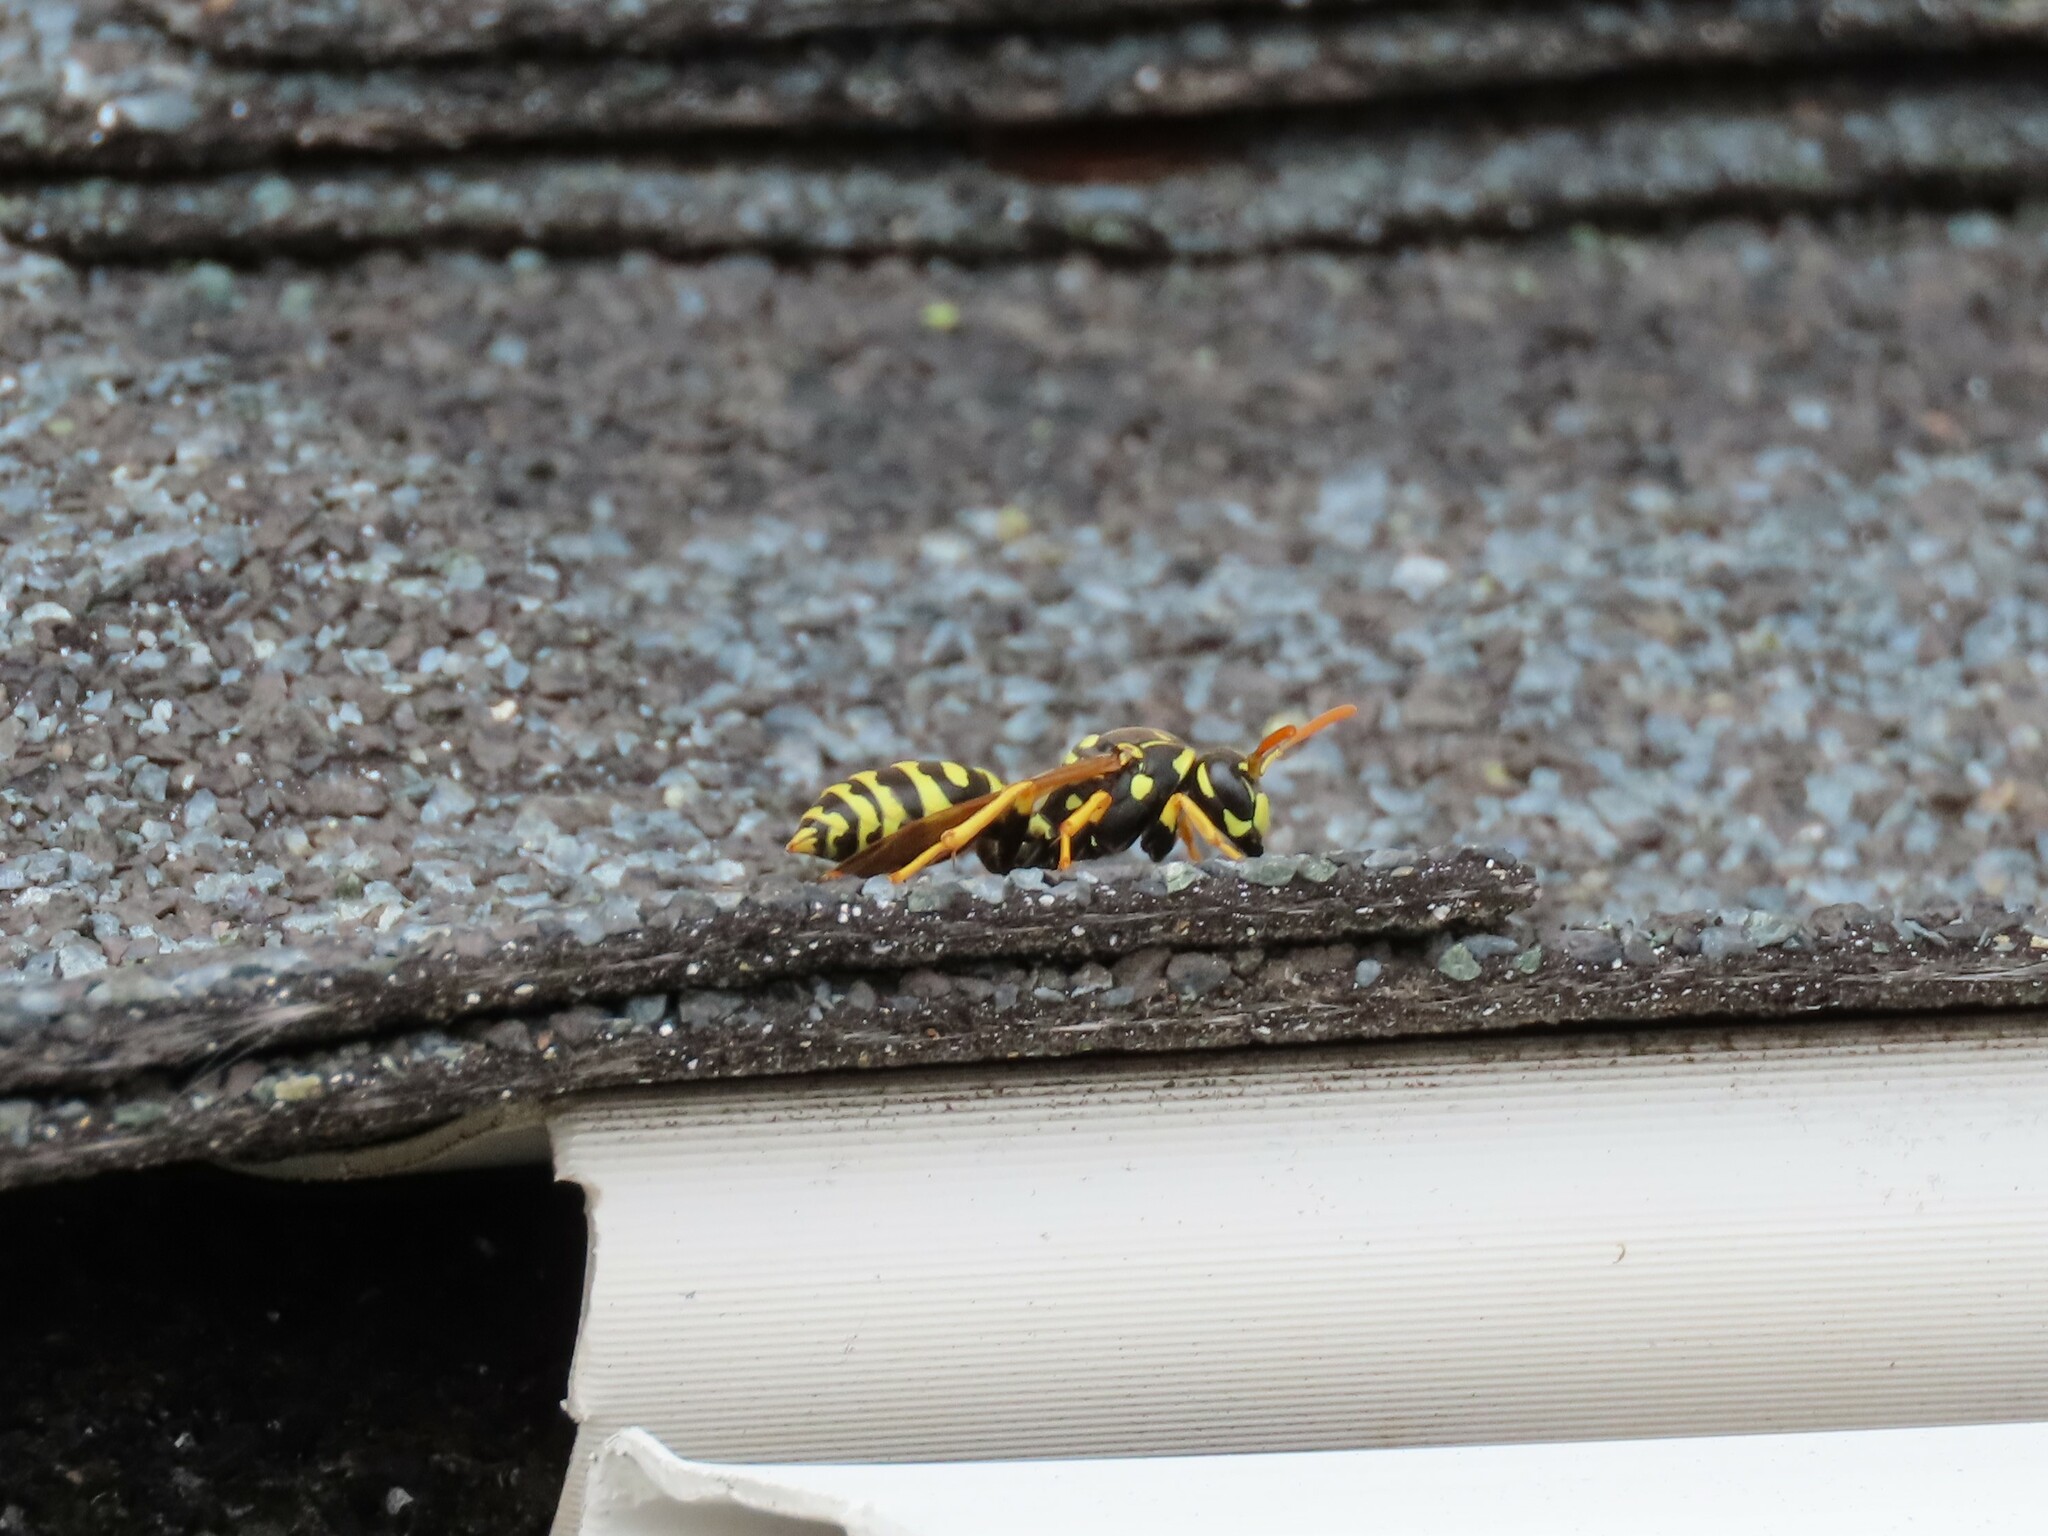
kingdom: Animalia
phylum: Arthropoda
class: Insecta
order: Hymenoptera
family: Eumenidae
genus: Polistes
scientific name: Polistes dominula
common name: Paper wasp
